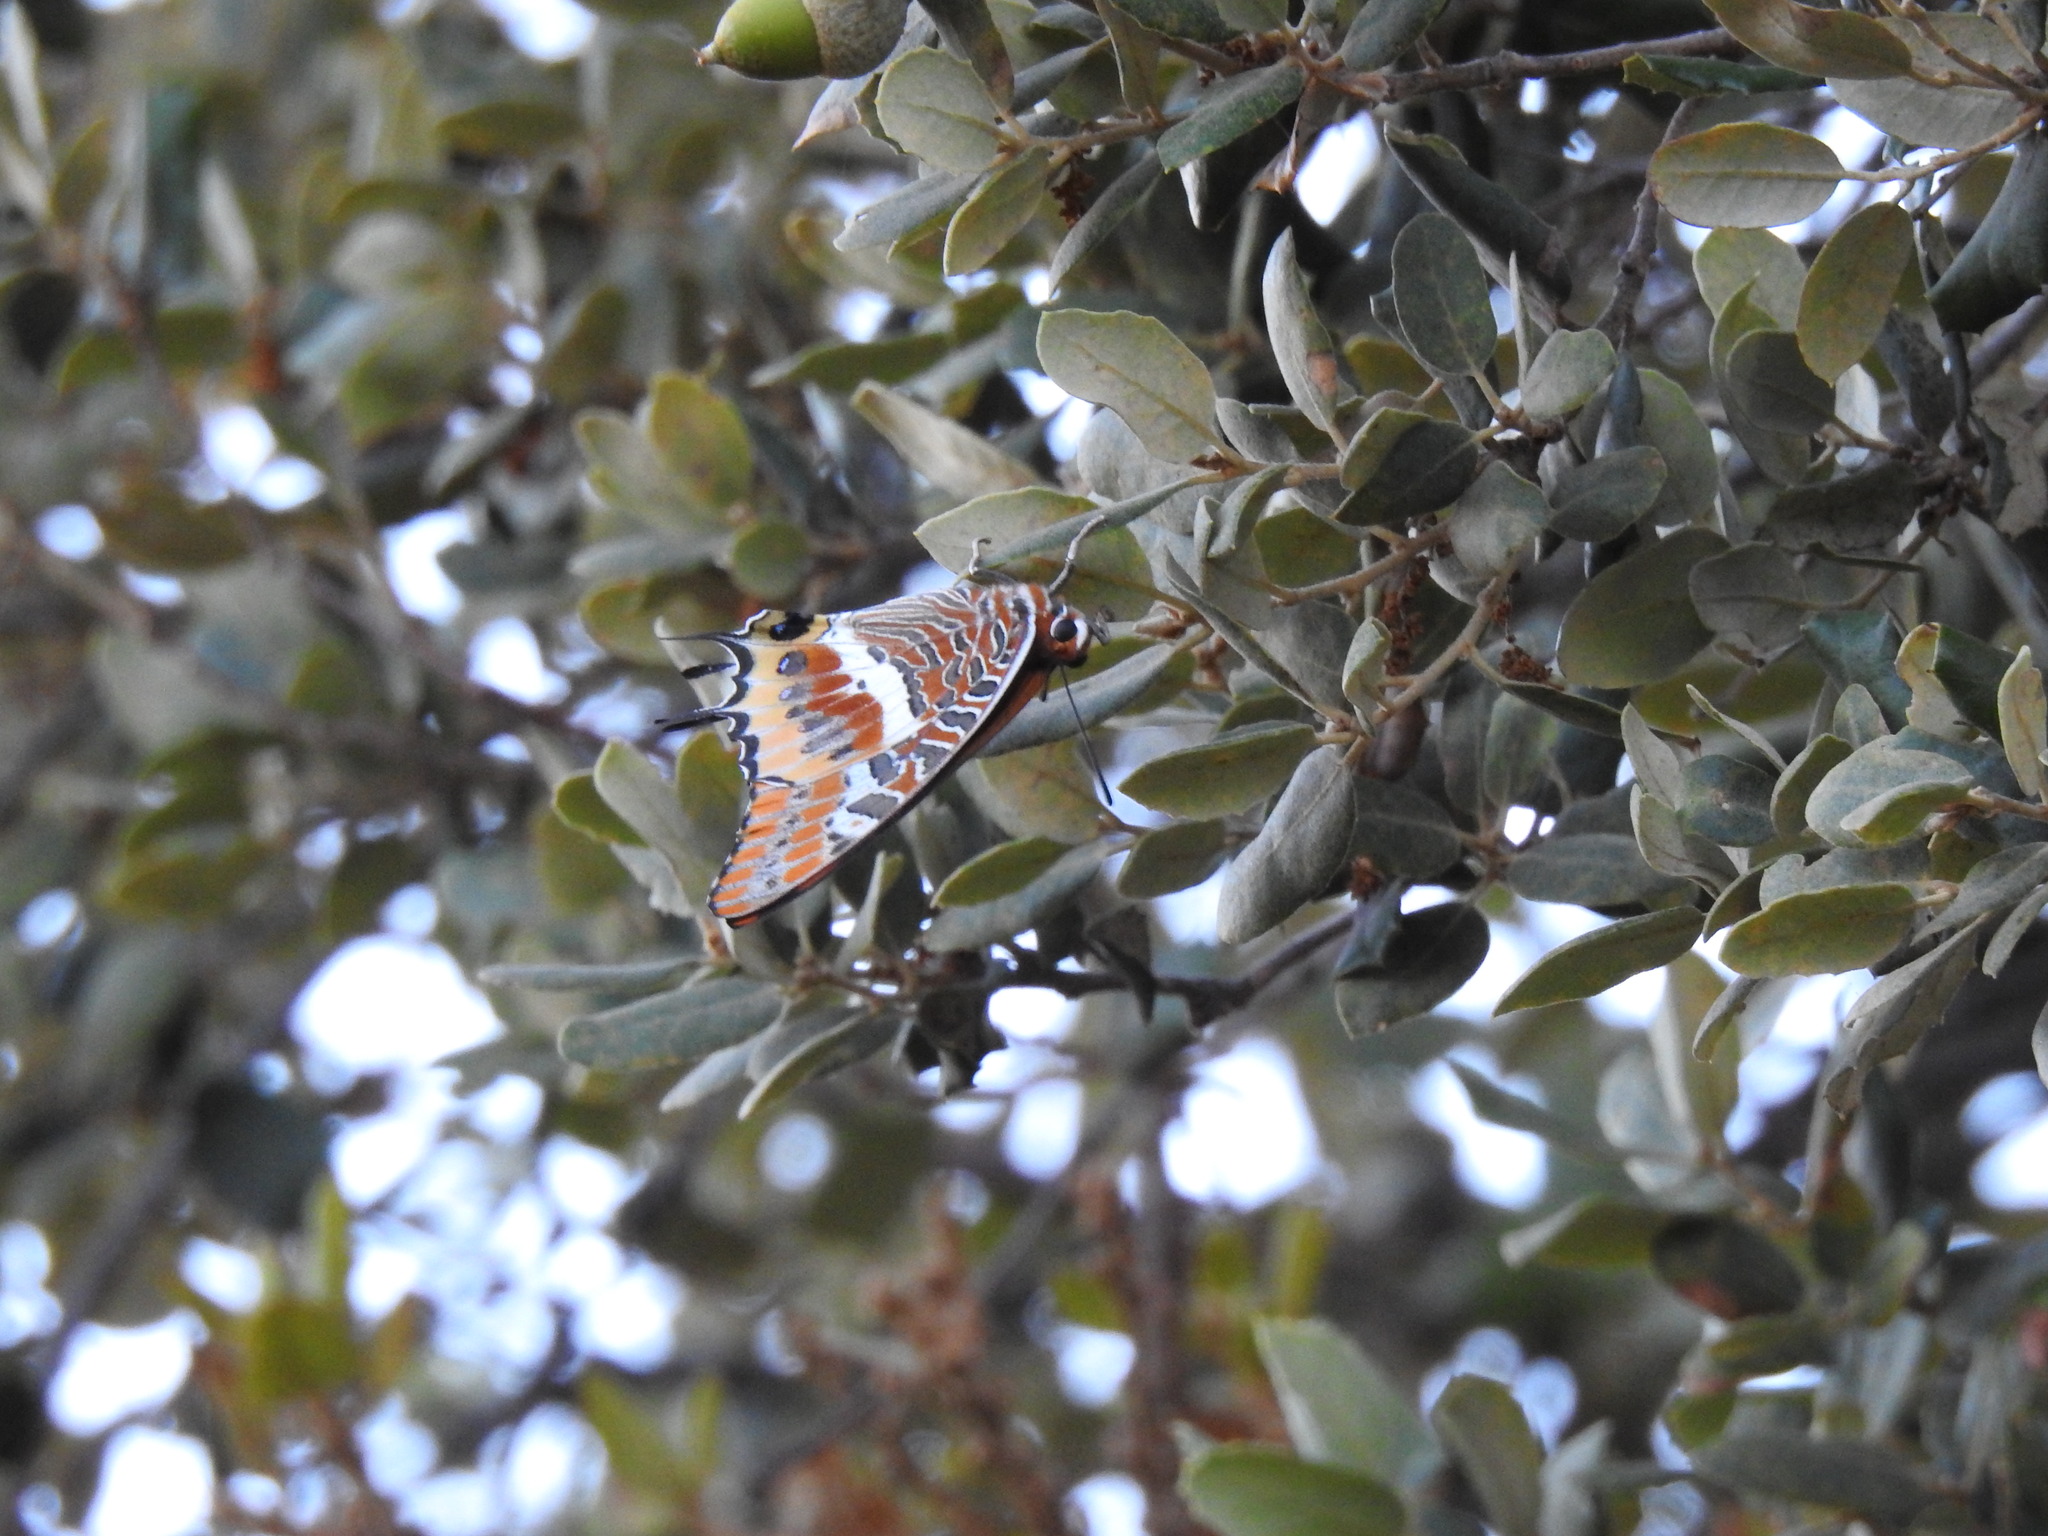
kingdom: Animalia
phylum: Arthropoda
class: Insecta
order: Lepidoptera
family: Nymphalidae
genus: Charaxes
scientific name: Charaxes jasius
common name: Two tailed pasha
